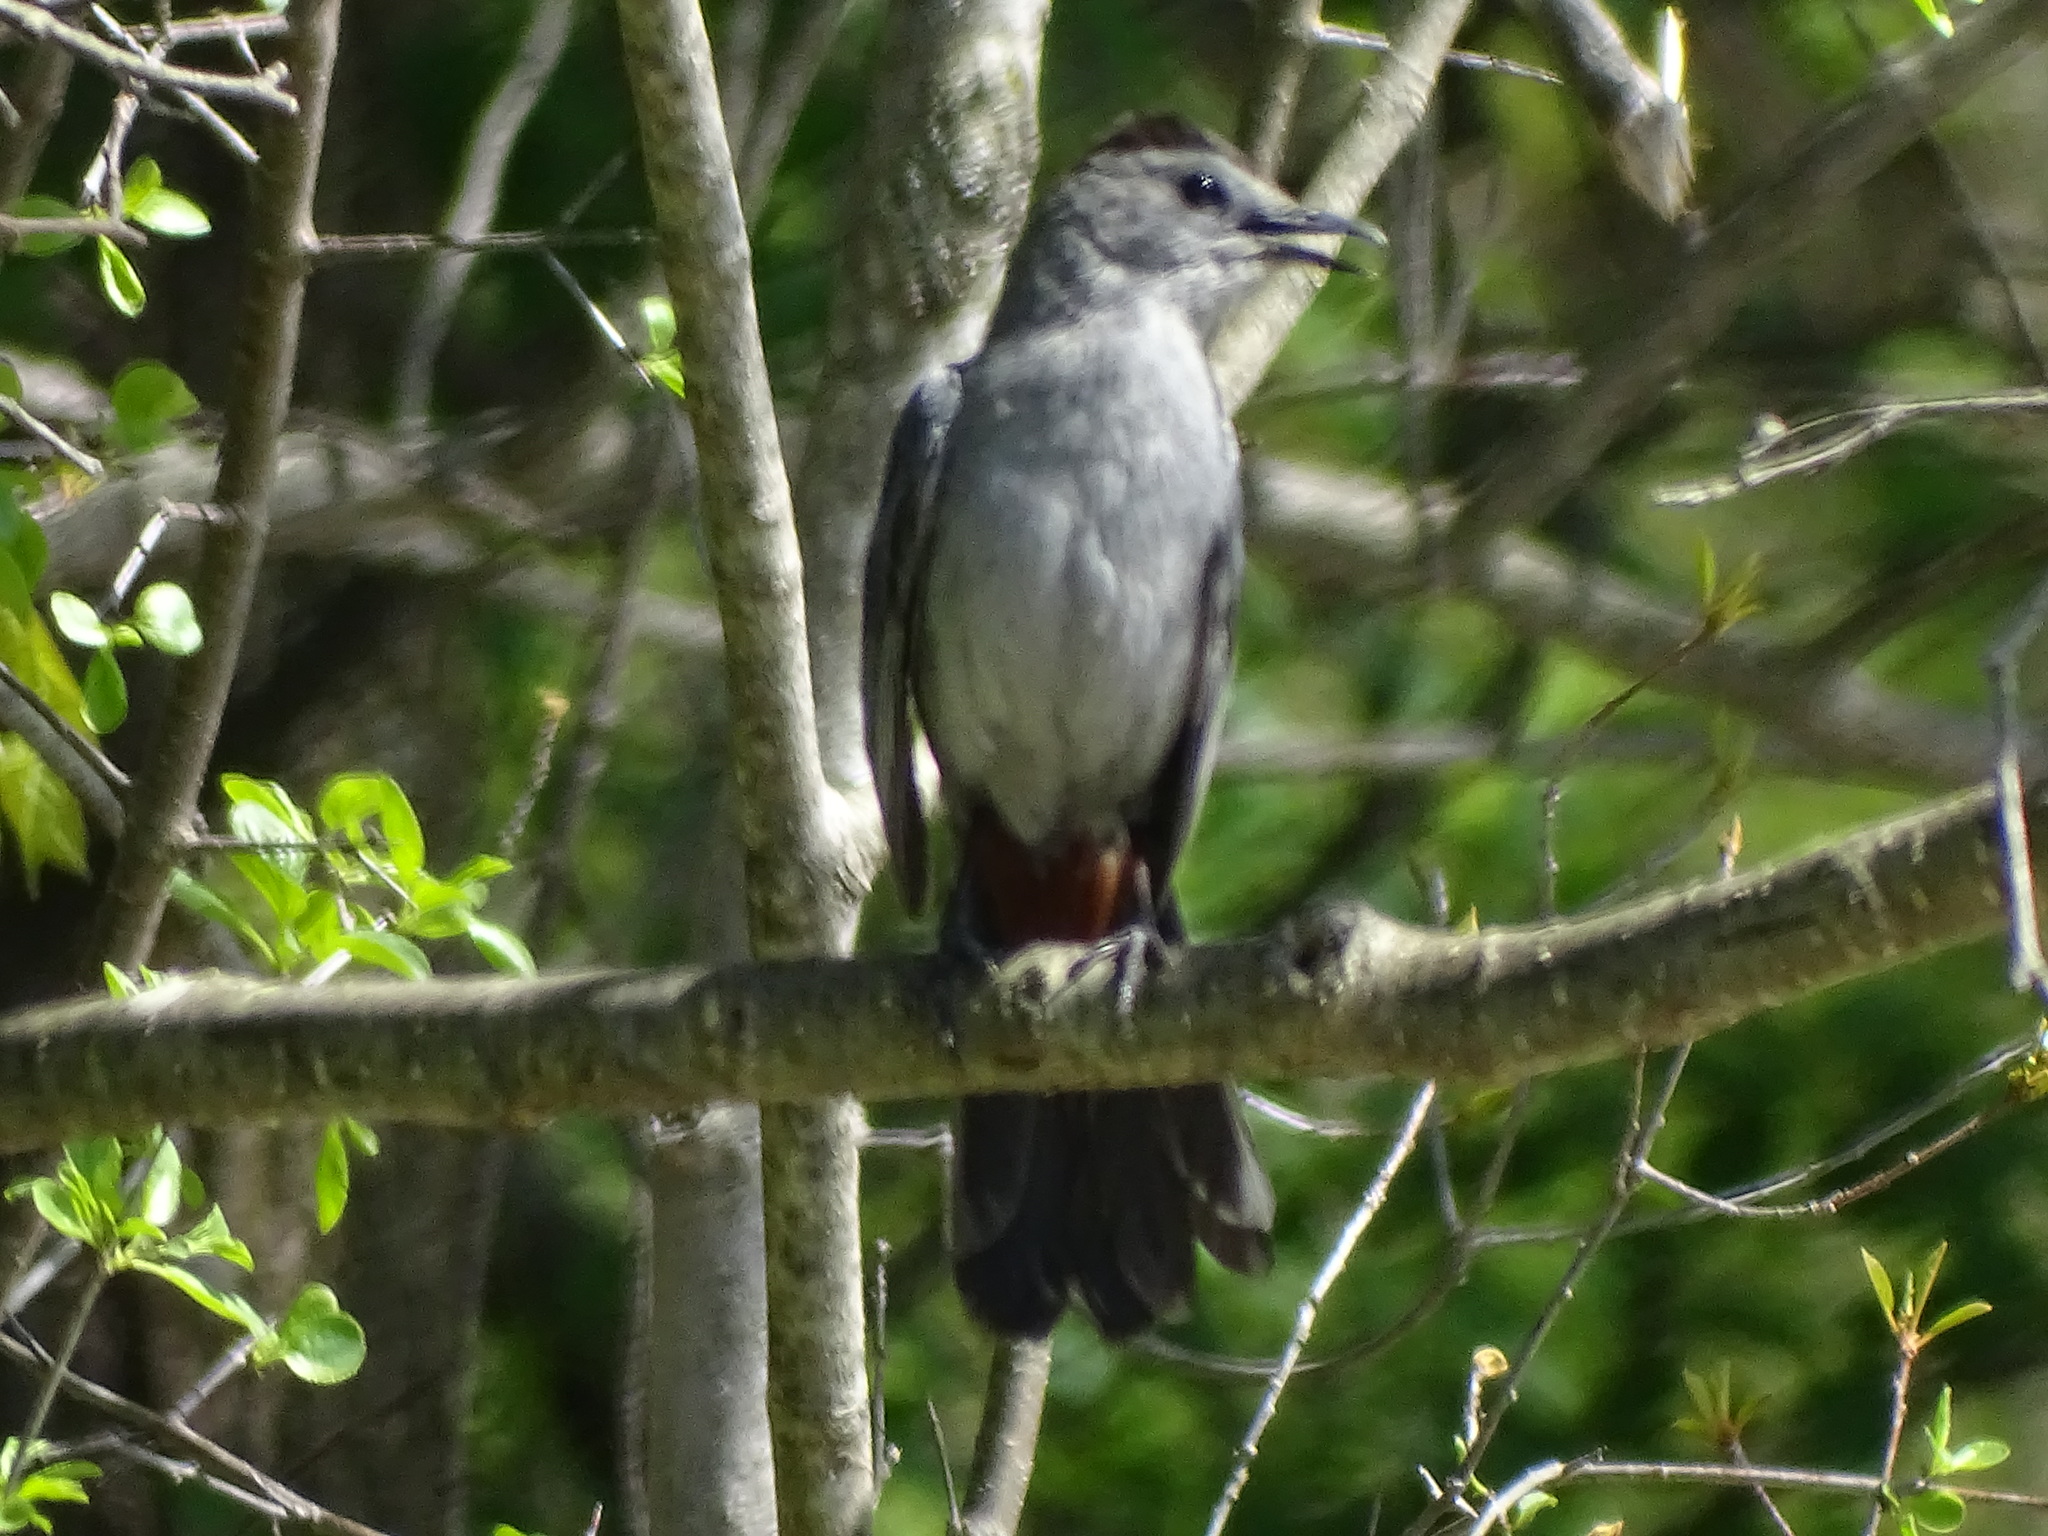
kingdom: Animalia
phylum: Chordata
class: Aves
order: Passeriformes
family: Mimidae
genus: Dumetella
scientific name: Dumetella carolinensis
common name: Gray catbird
